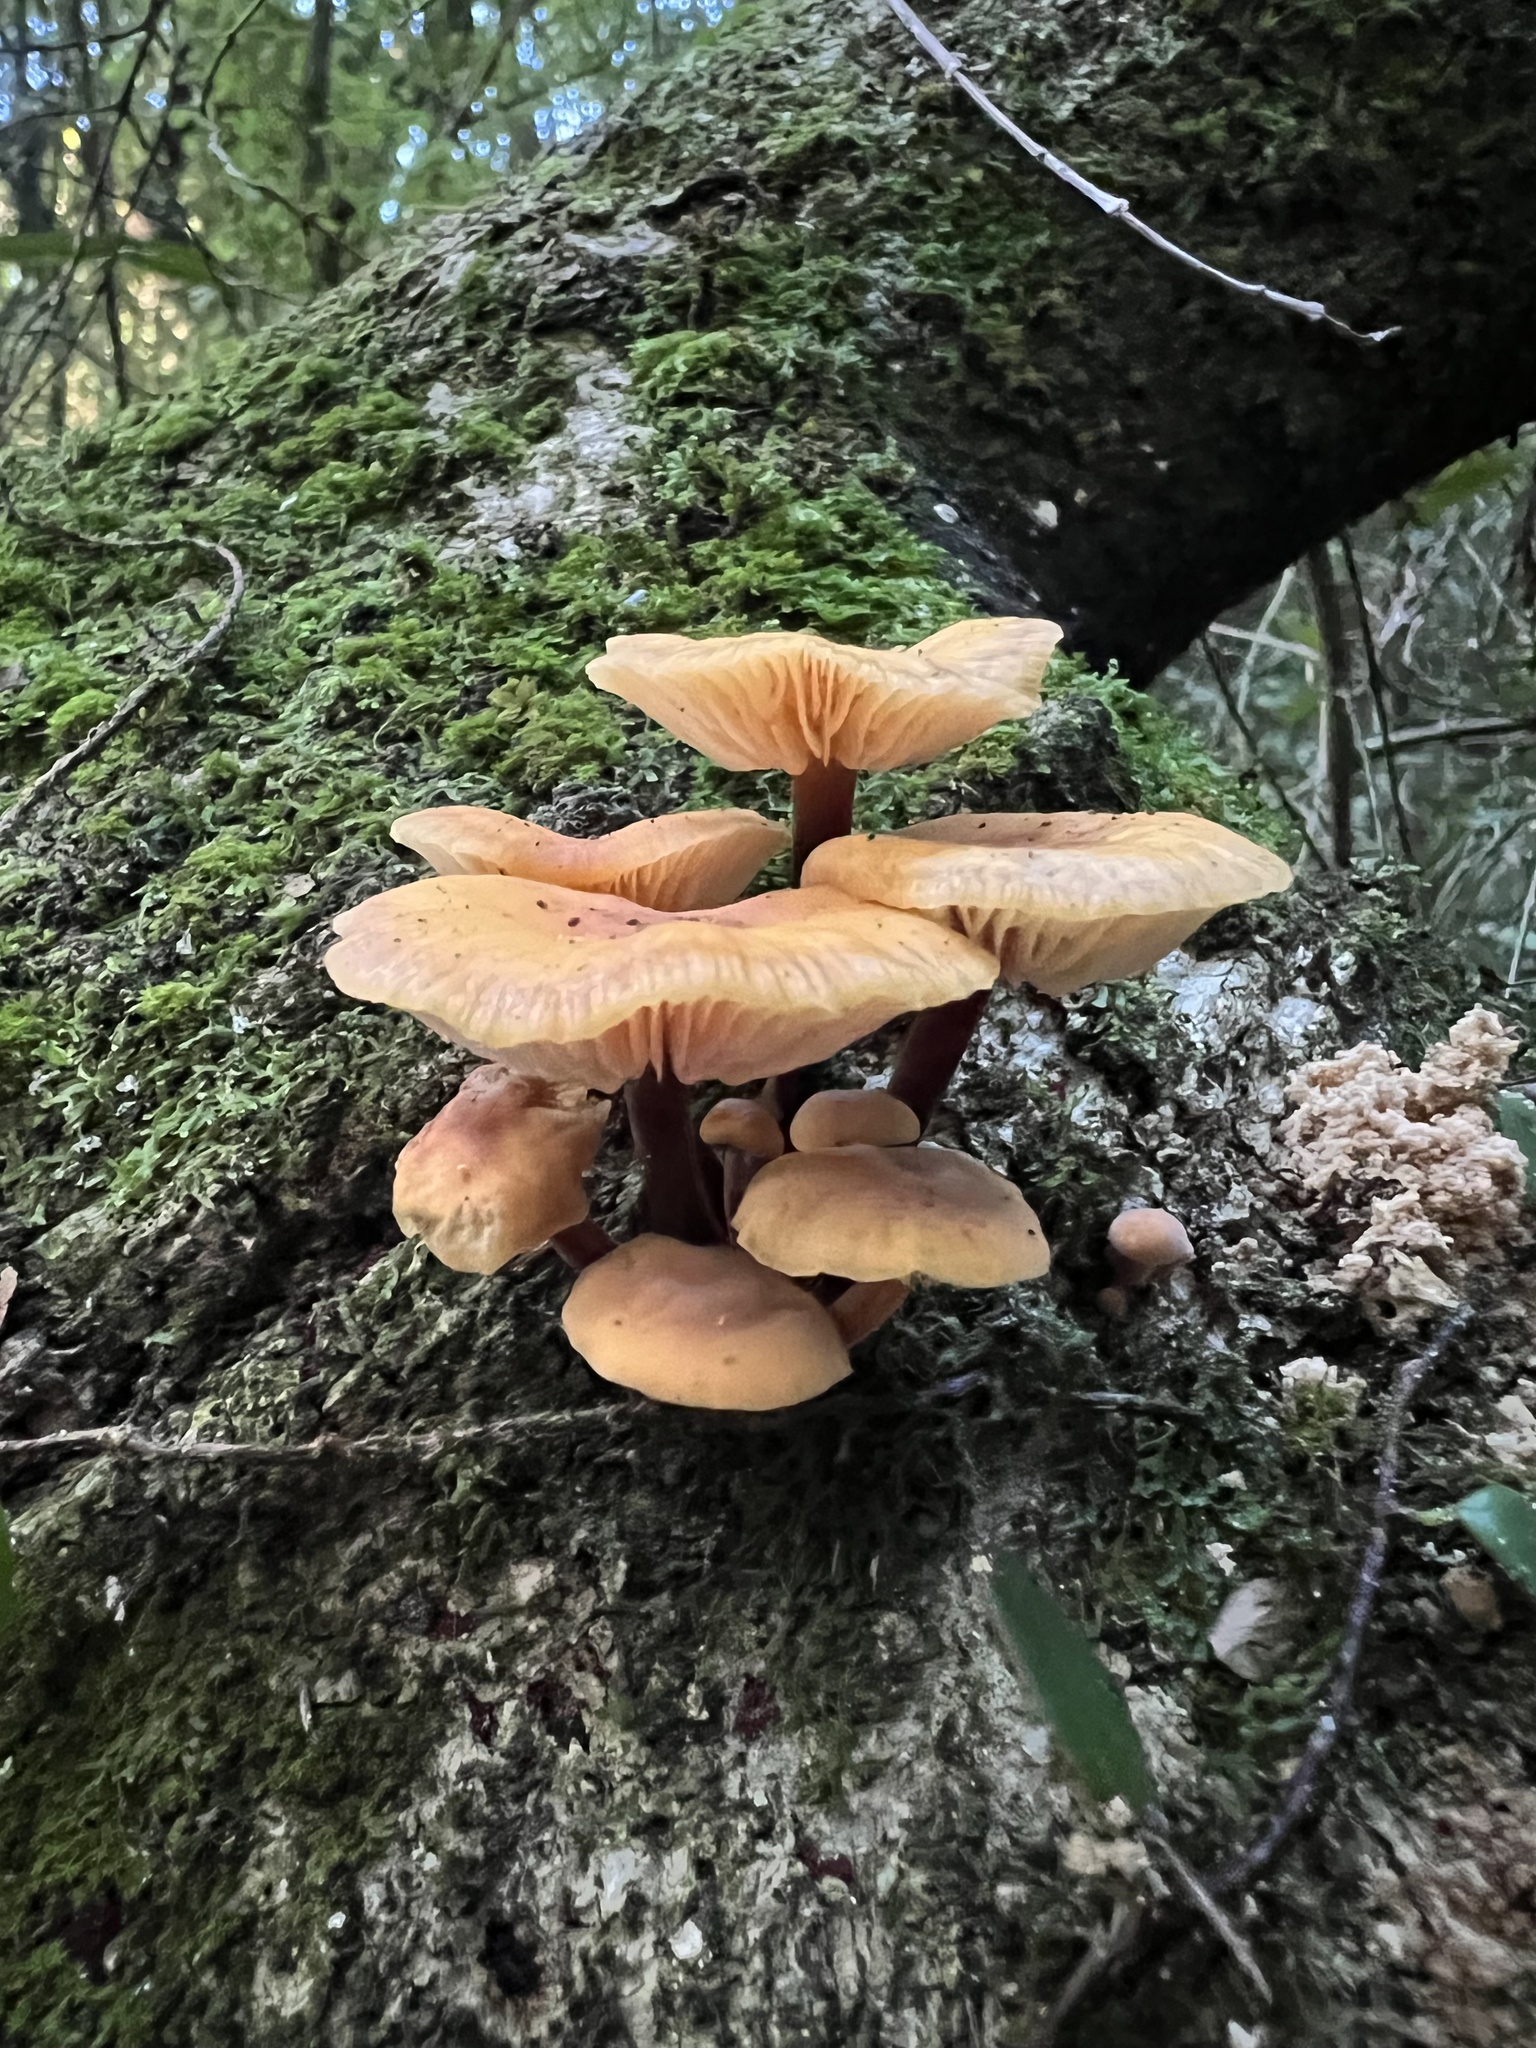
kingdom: Fungi
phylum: Basidiomycota
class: Agaricomycetes
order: Agaricales
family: Physalacriaceae
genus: Flammulina
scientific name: Flammulina velutipes
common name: Velvet shank
